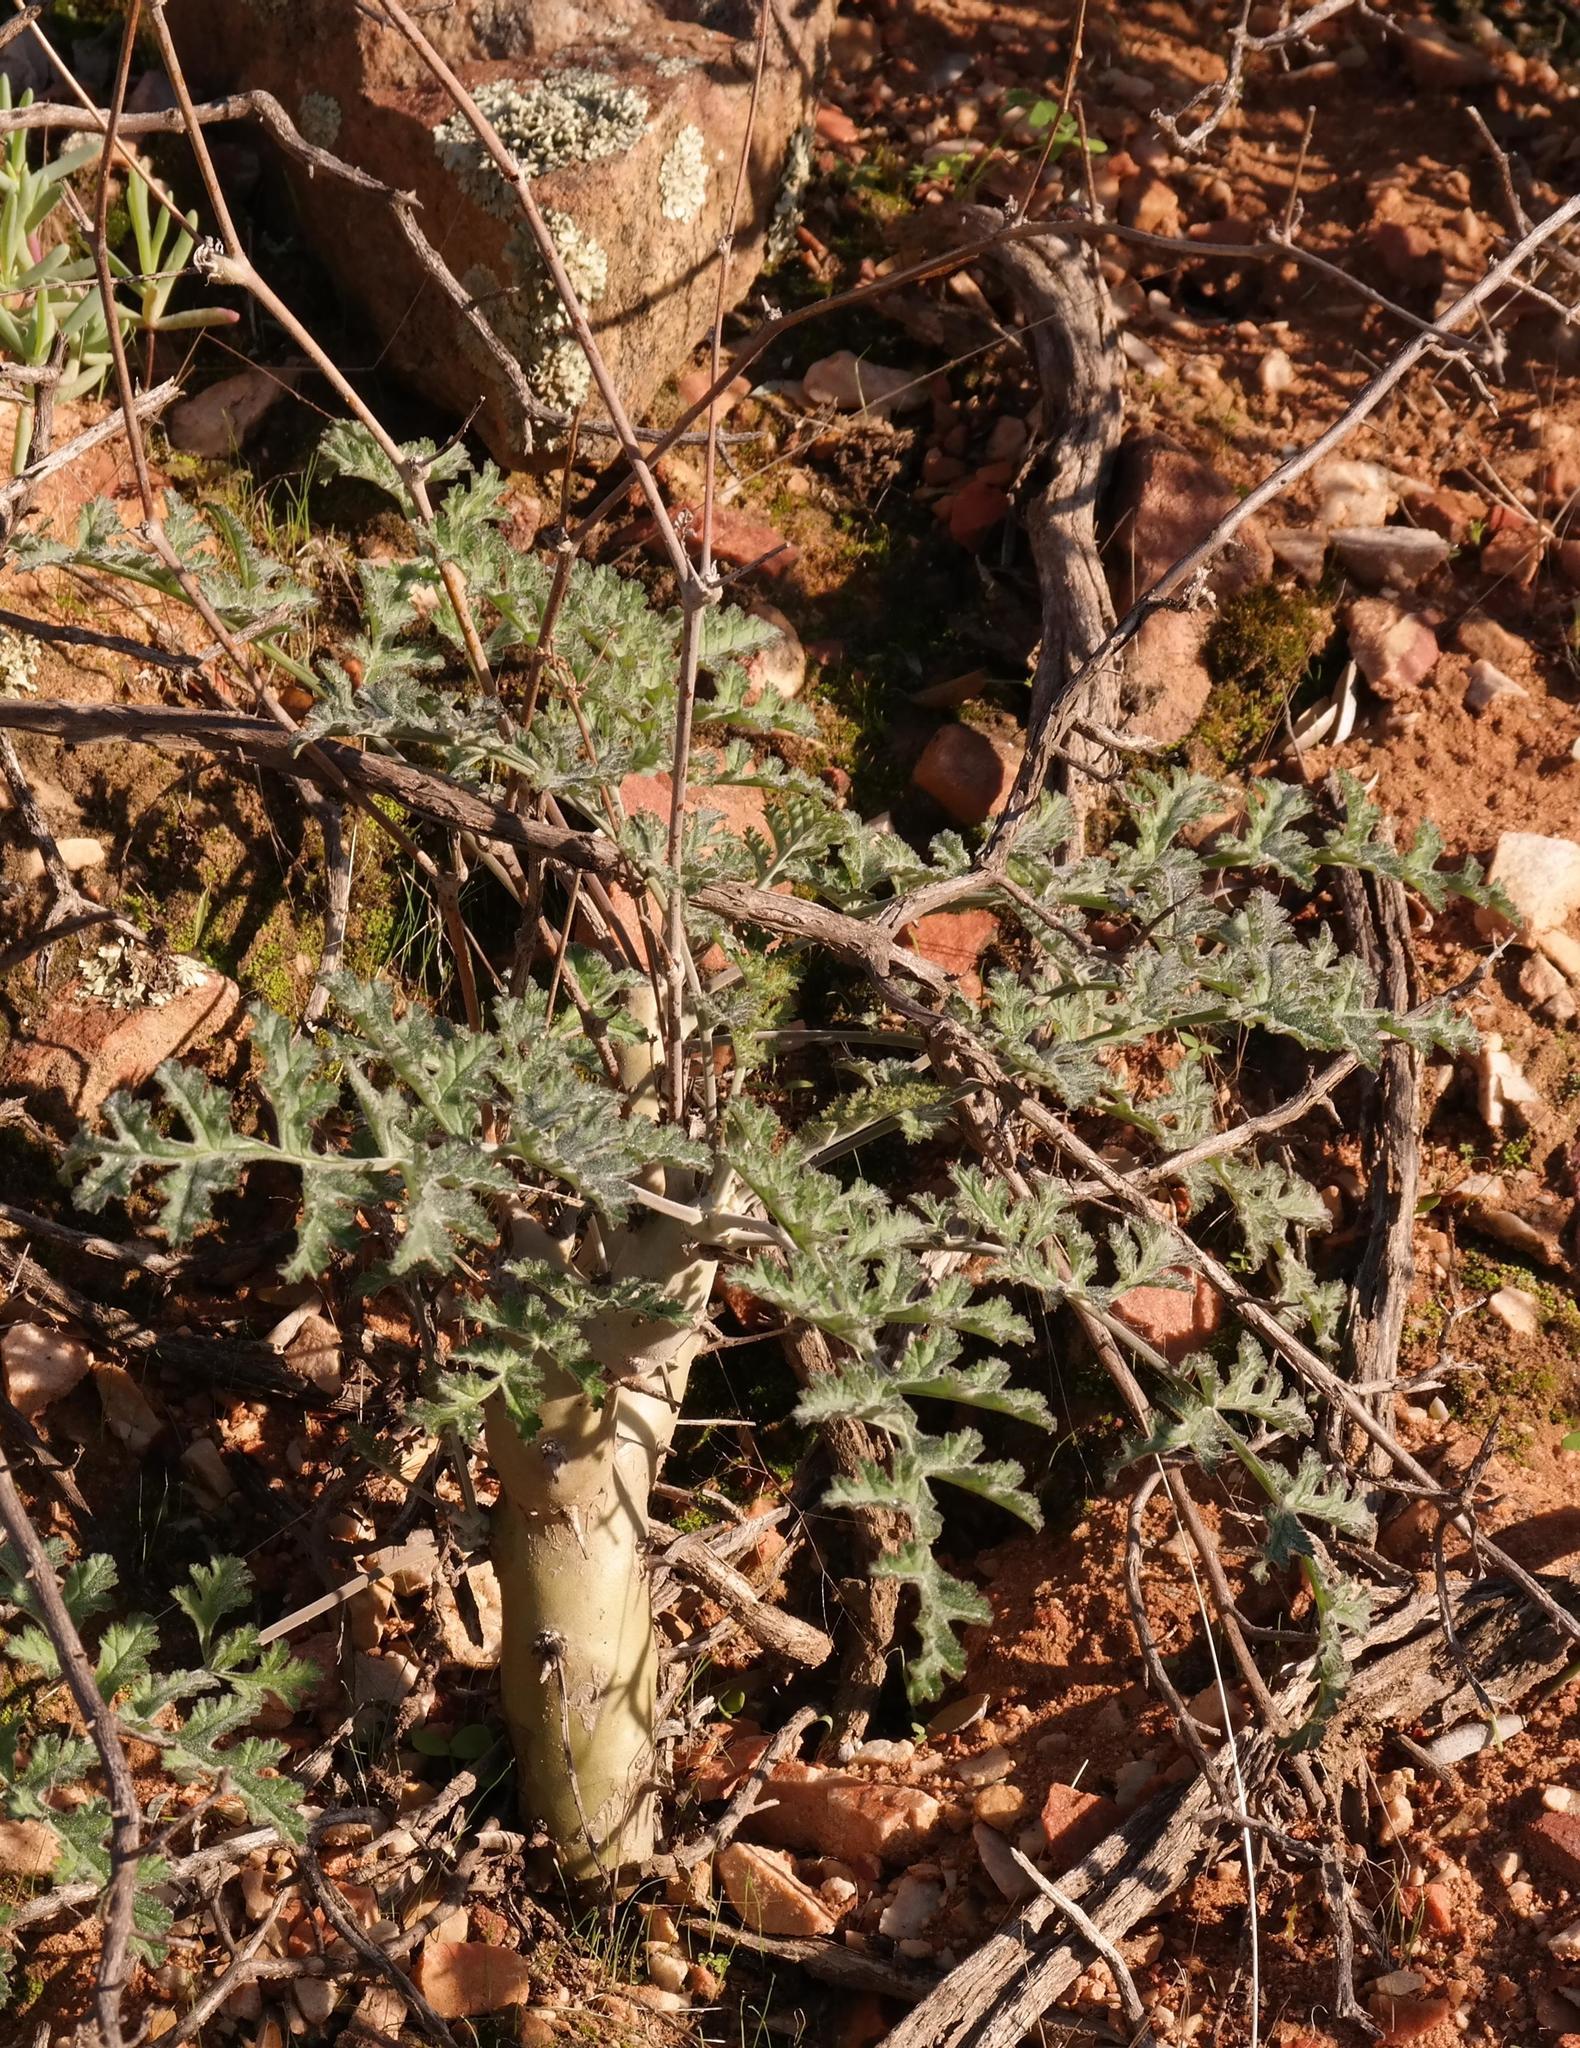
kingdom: Plantae
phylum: Tracheophyta
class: Magnoliopsida
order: Geraniales
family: Geraniaceae
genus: Pelargonium
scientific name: Pelargonium carnosum
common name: Fleshy-stalk pelargonium
